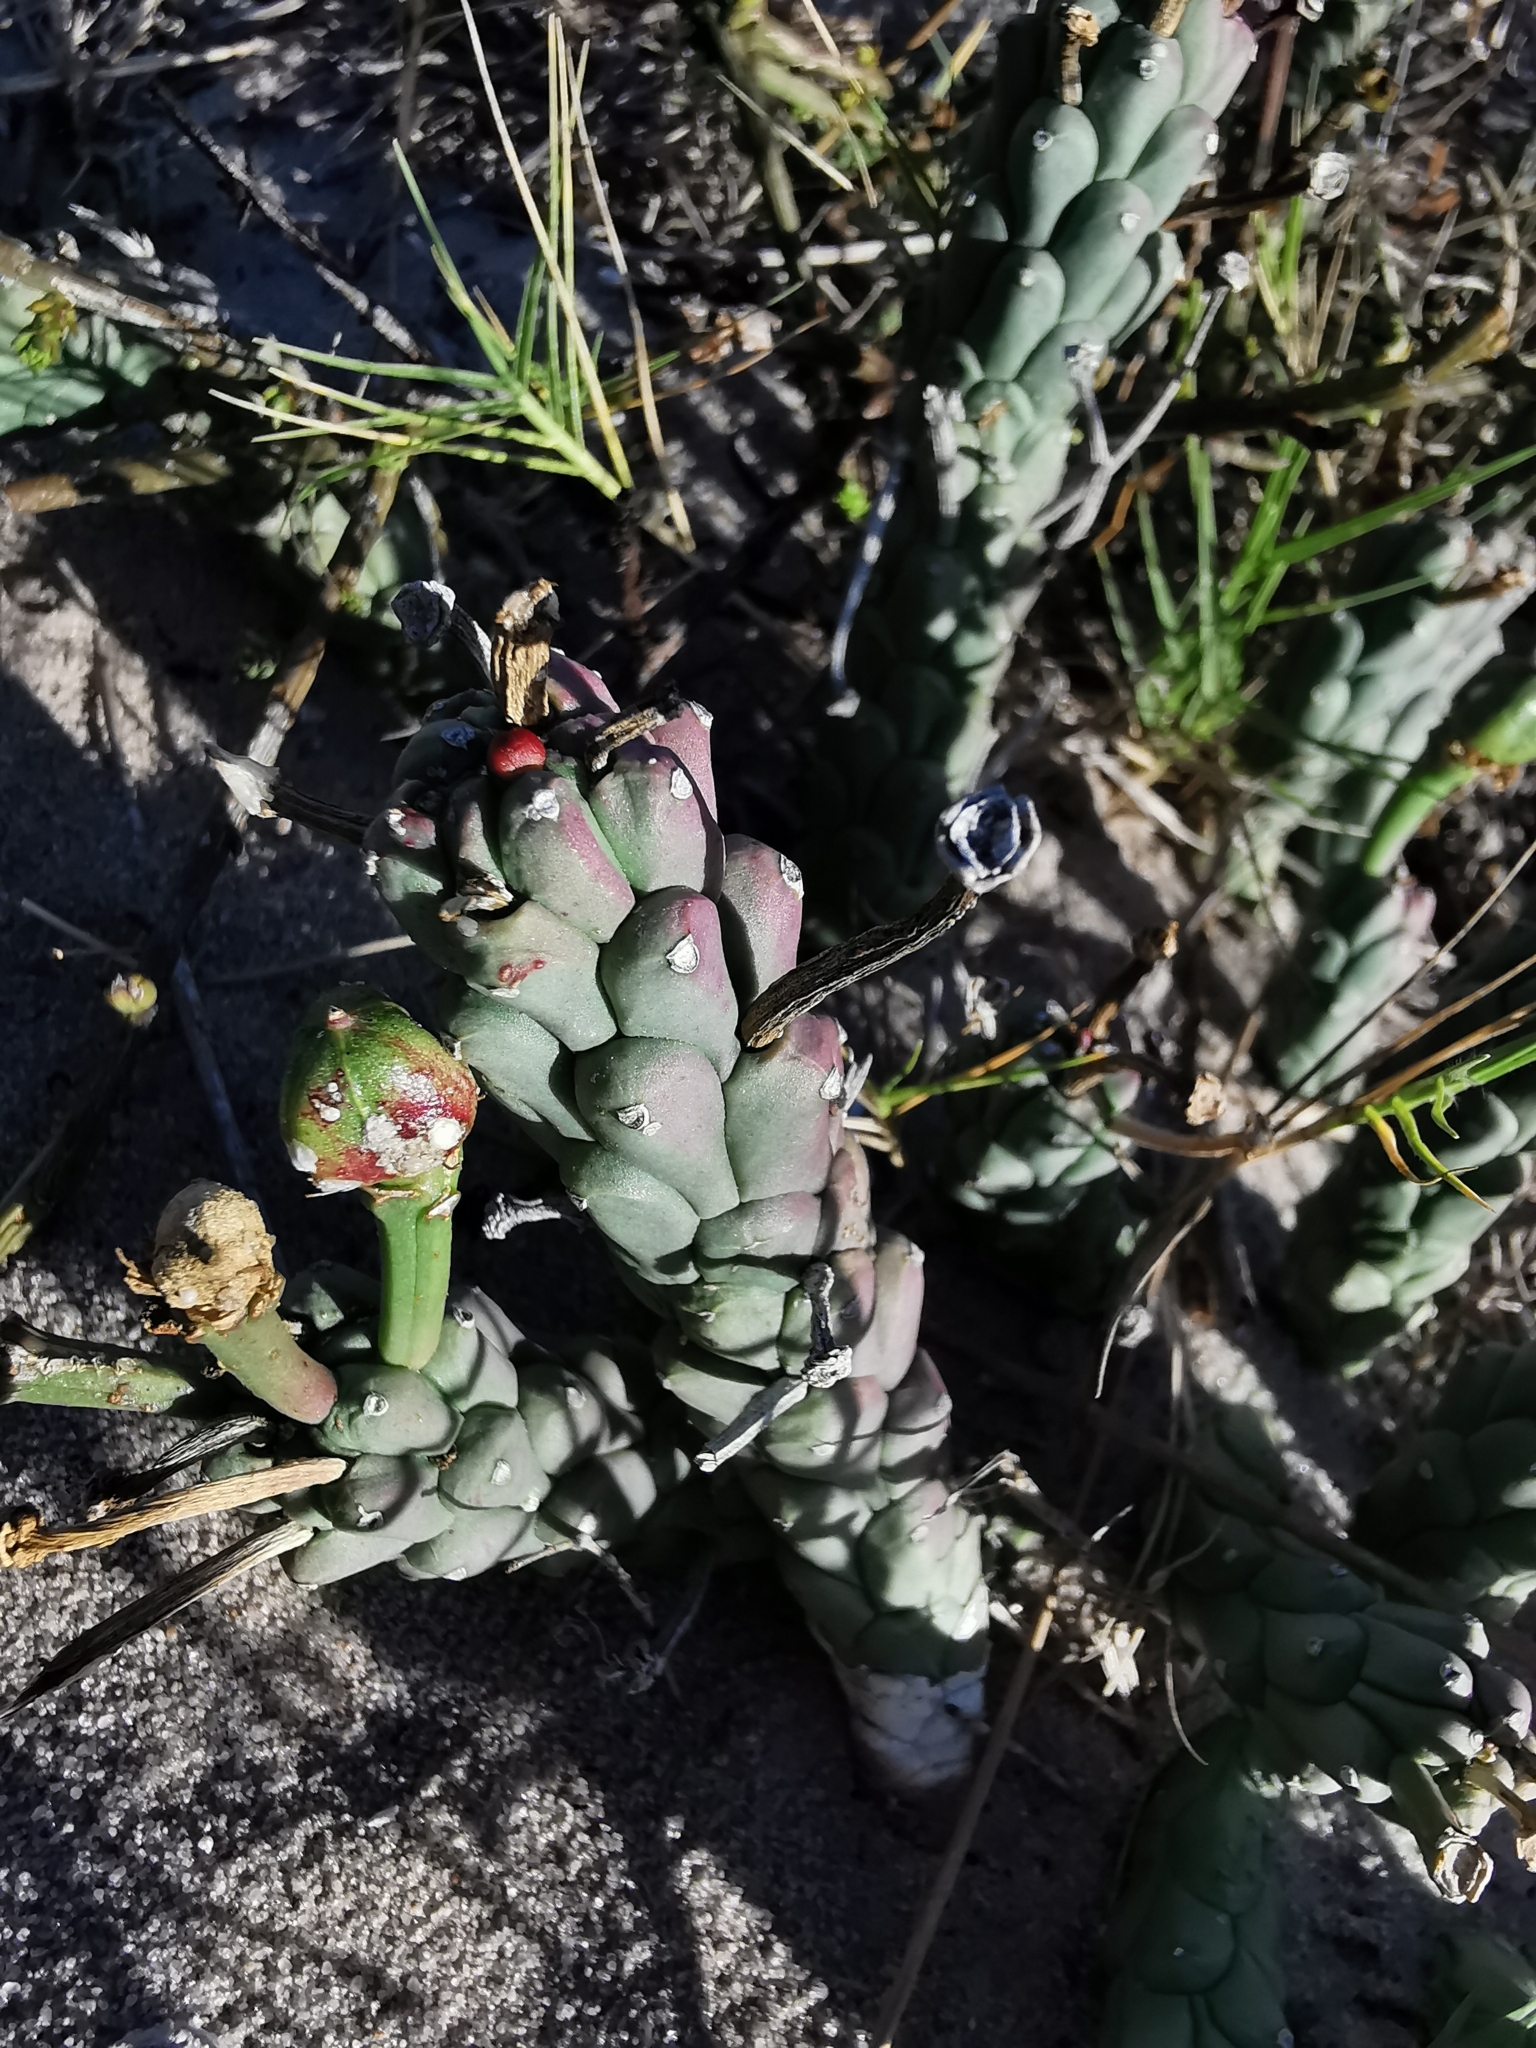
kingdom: Plantae
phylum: Tracheophyta
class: Magnoliopsida
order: Malpighiales
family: Euphorbiaceae
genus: Euphorbia
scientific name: Euphorbia caput-medusae
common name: Medusa's-head
